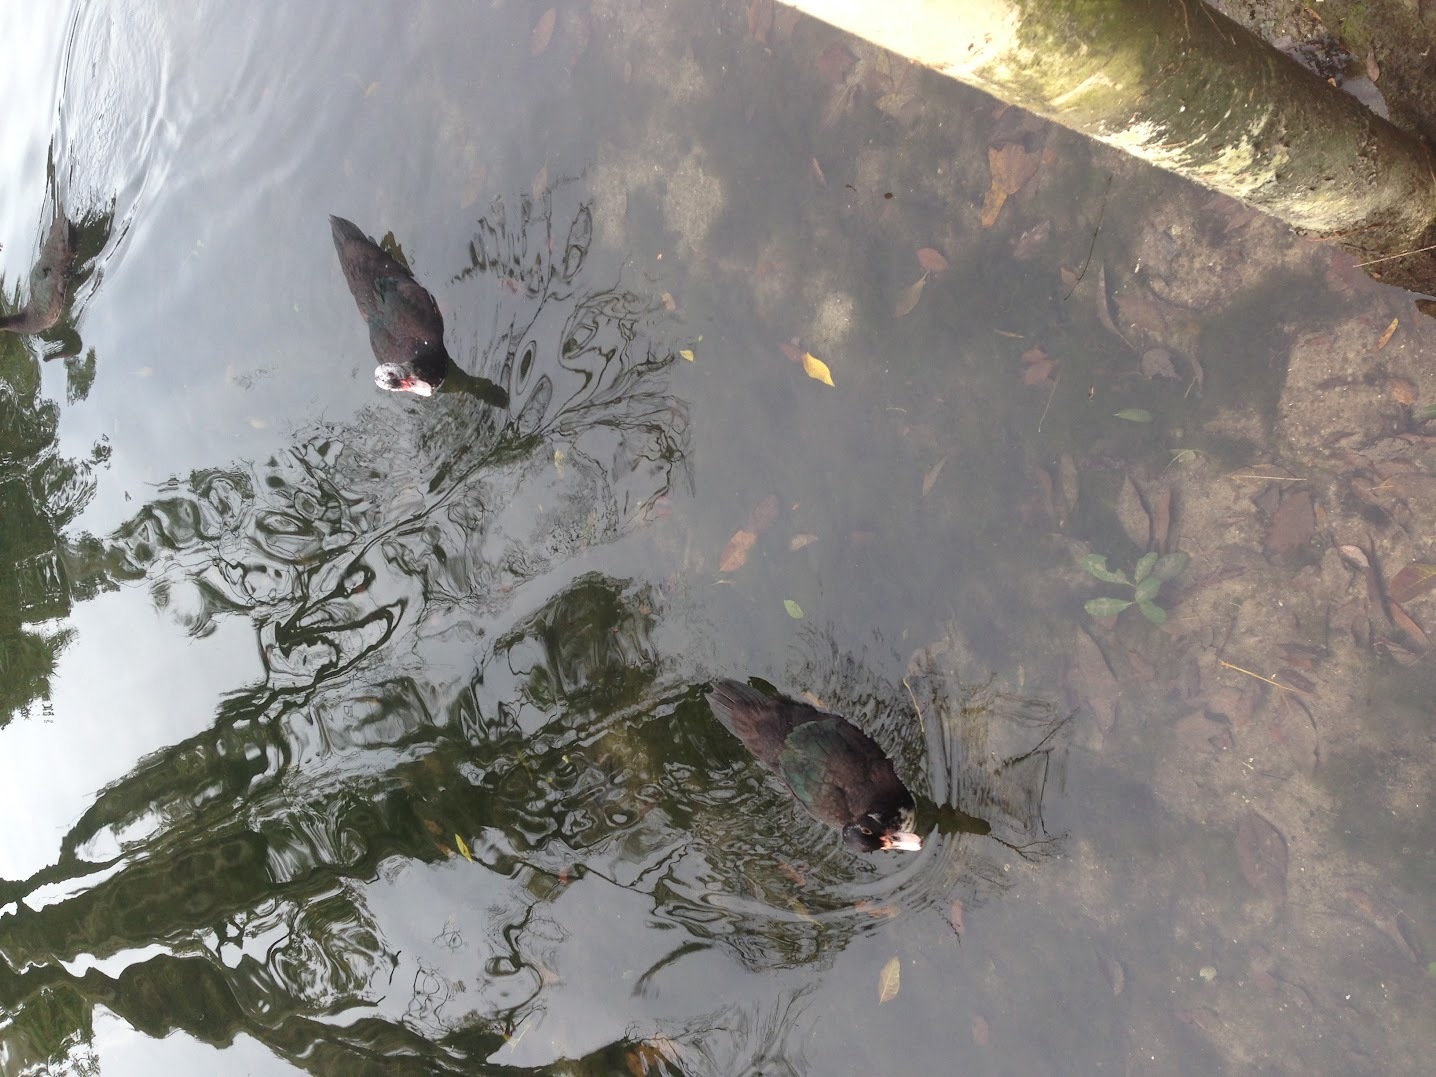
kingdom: Animalia
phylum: Chordata
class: Aves
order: Anseriformes
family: Anatidae
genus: Cairina
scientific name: Cairina moschata
